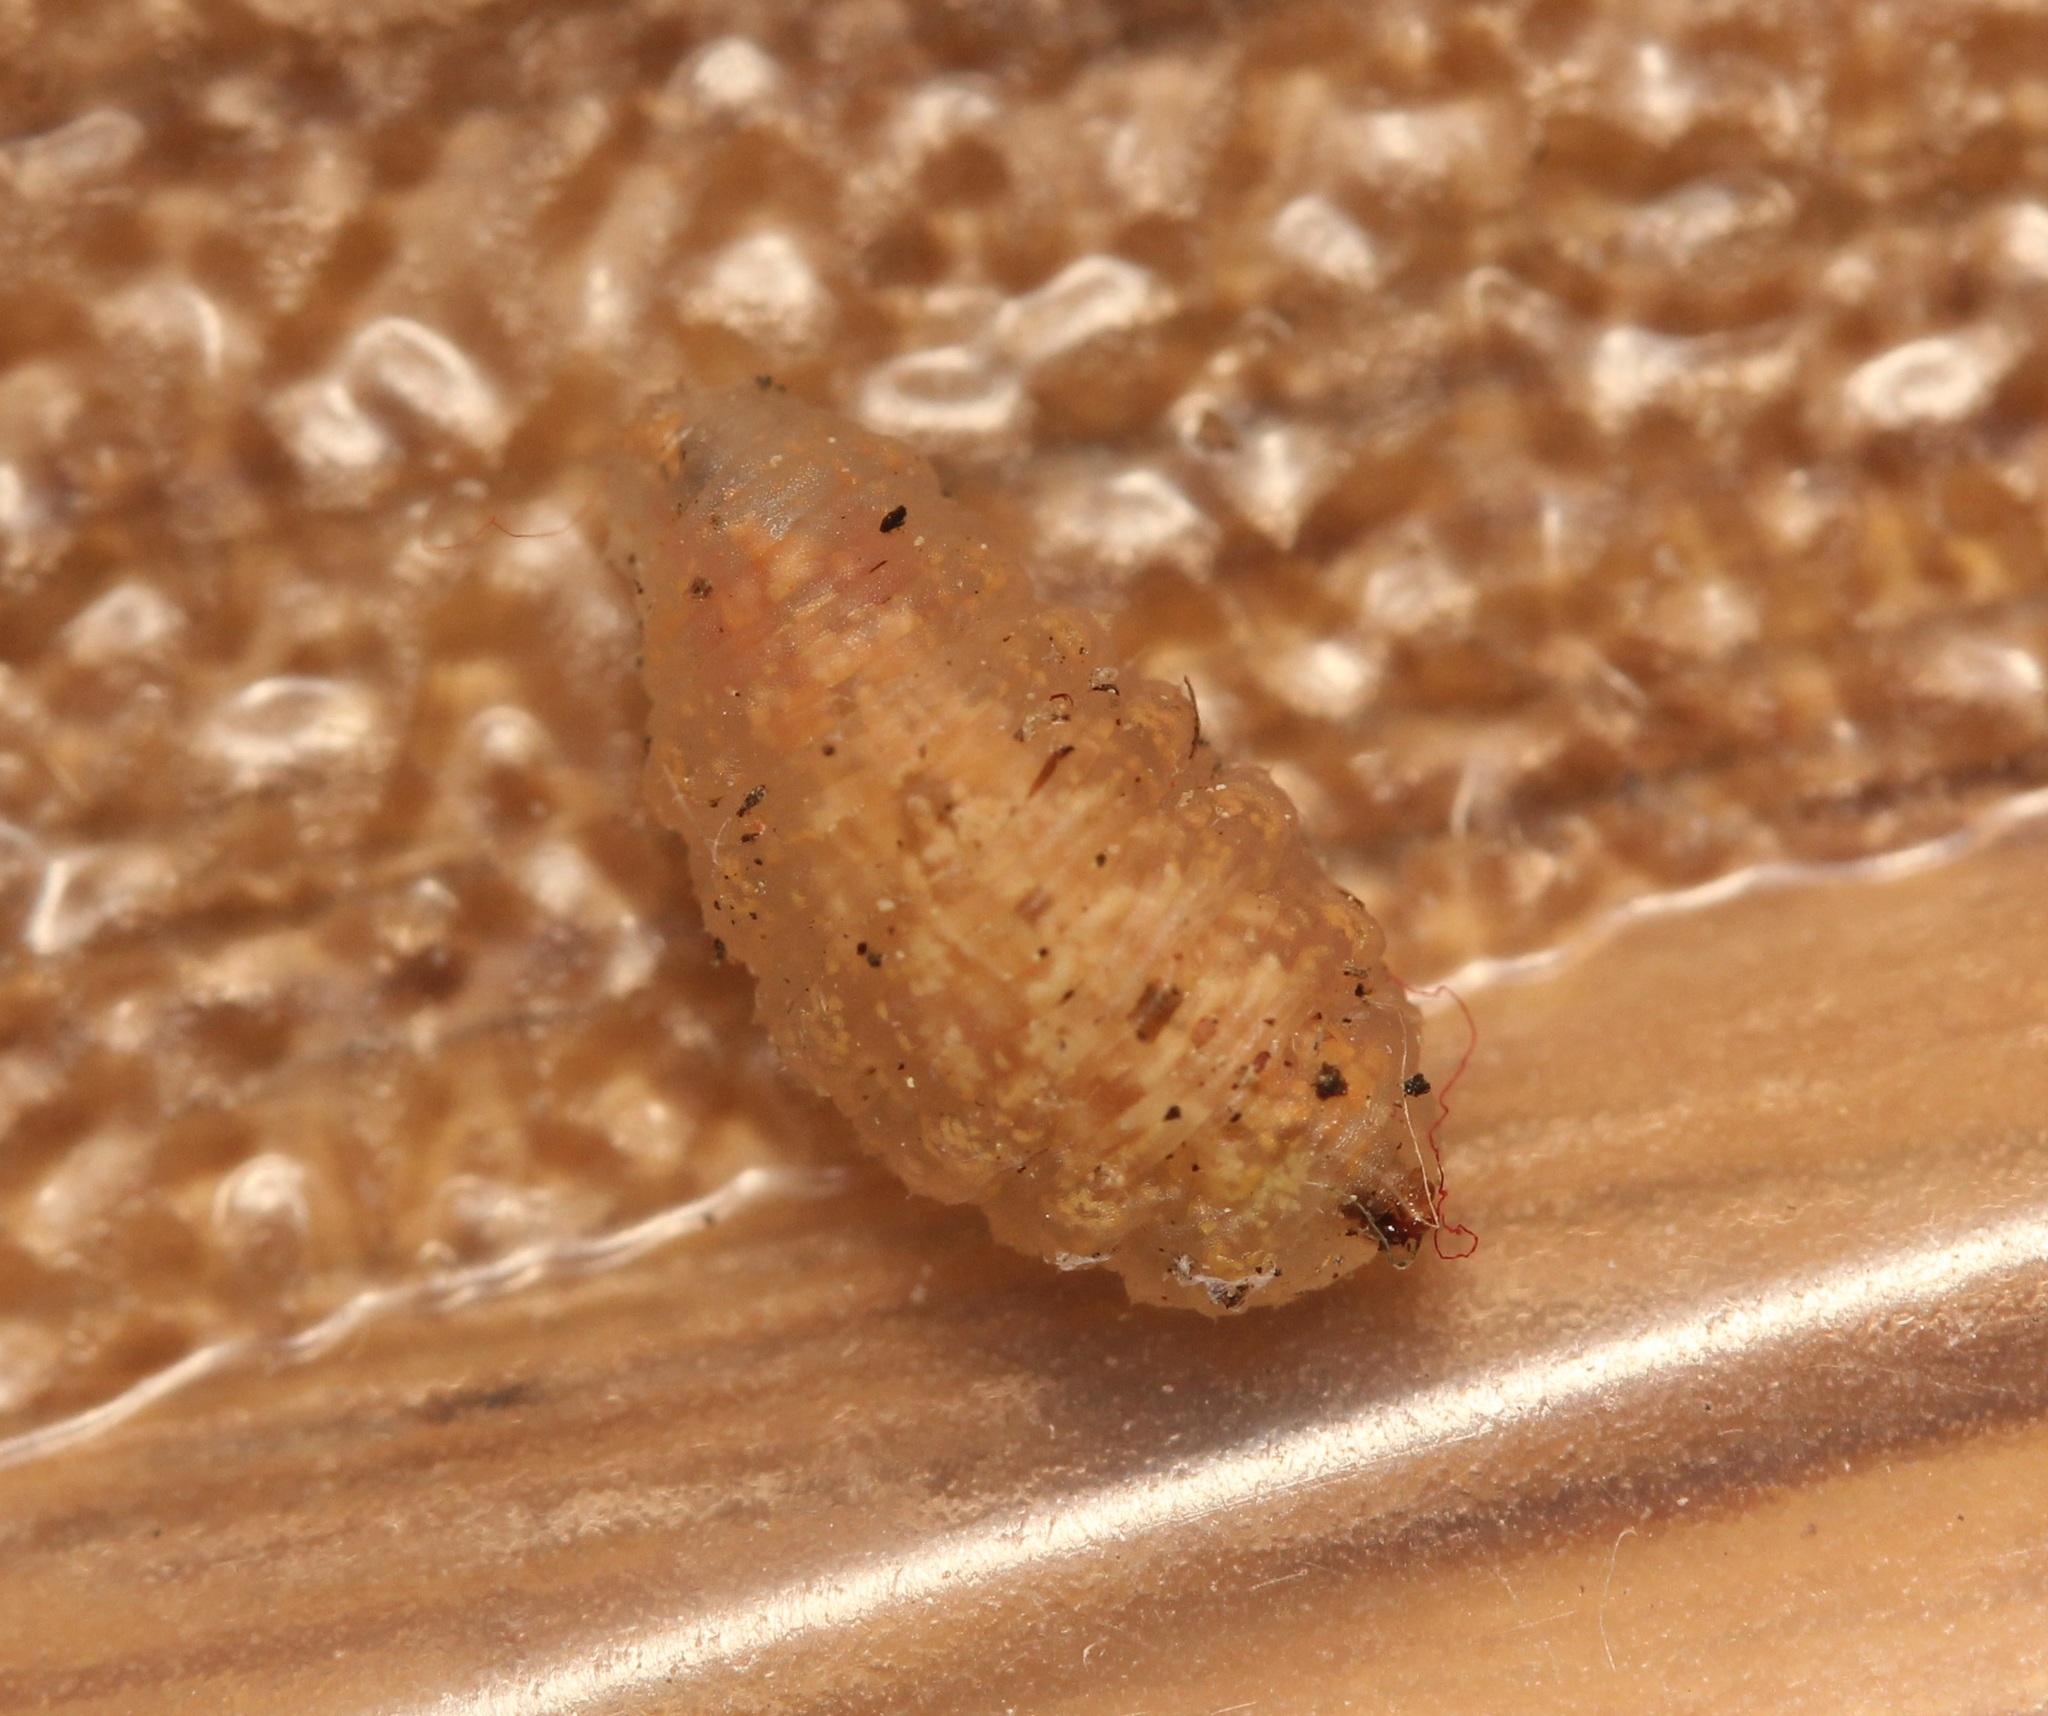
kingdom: Animalia
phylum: Arthropoda
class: Insecta
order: Diptera
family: Syrphidae
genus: Syrphus
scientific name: Syrphus knabi
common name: Eastern flower fly
